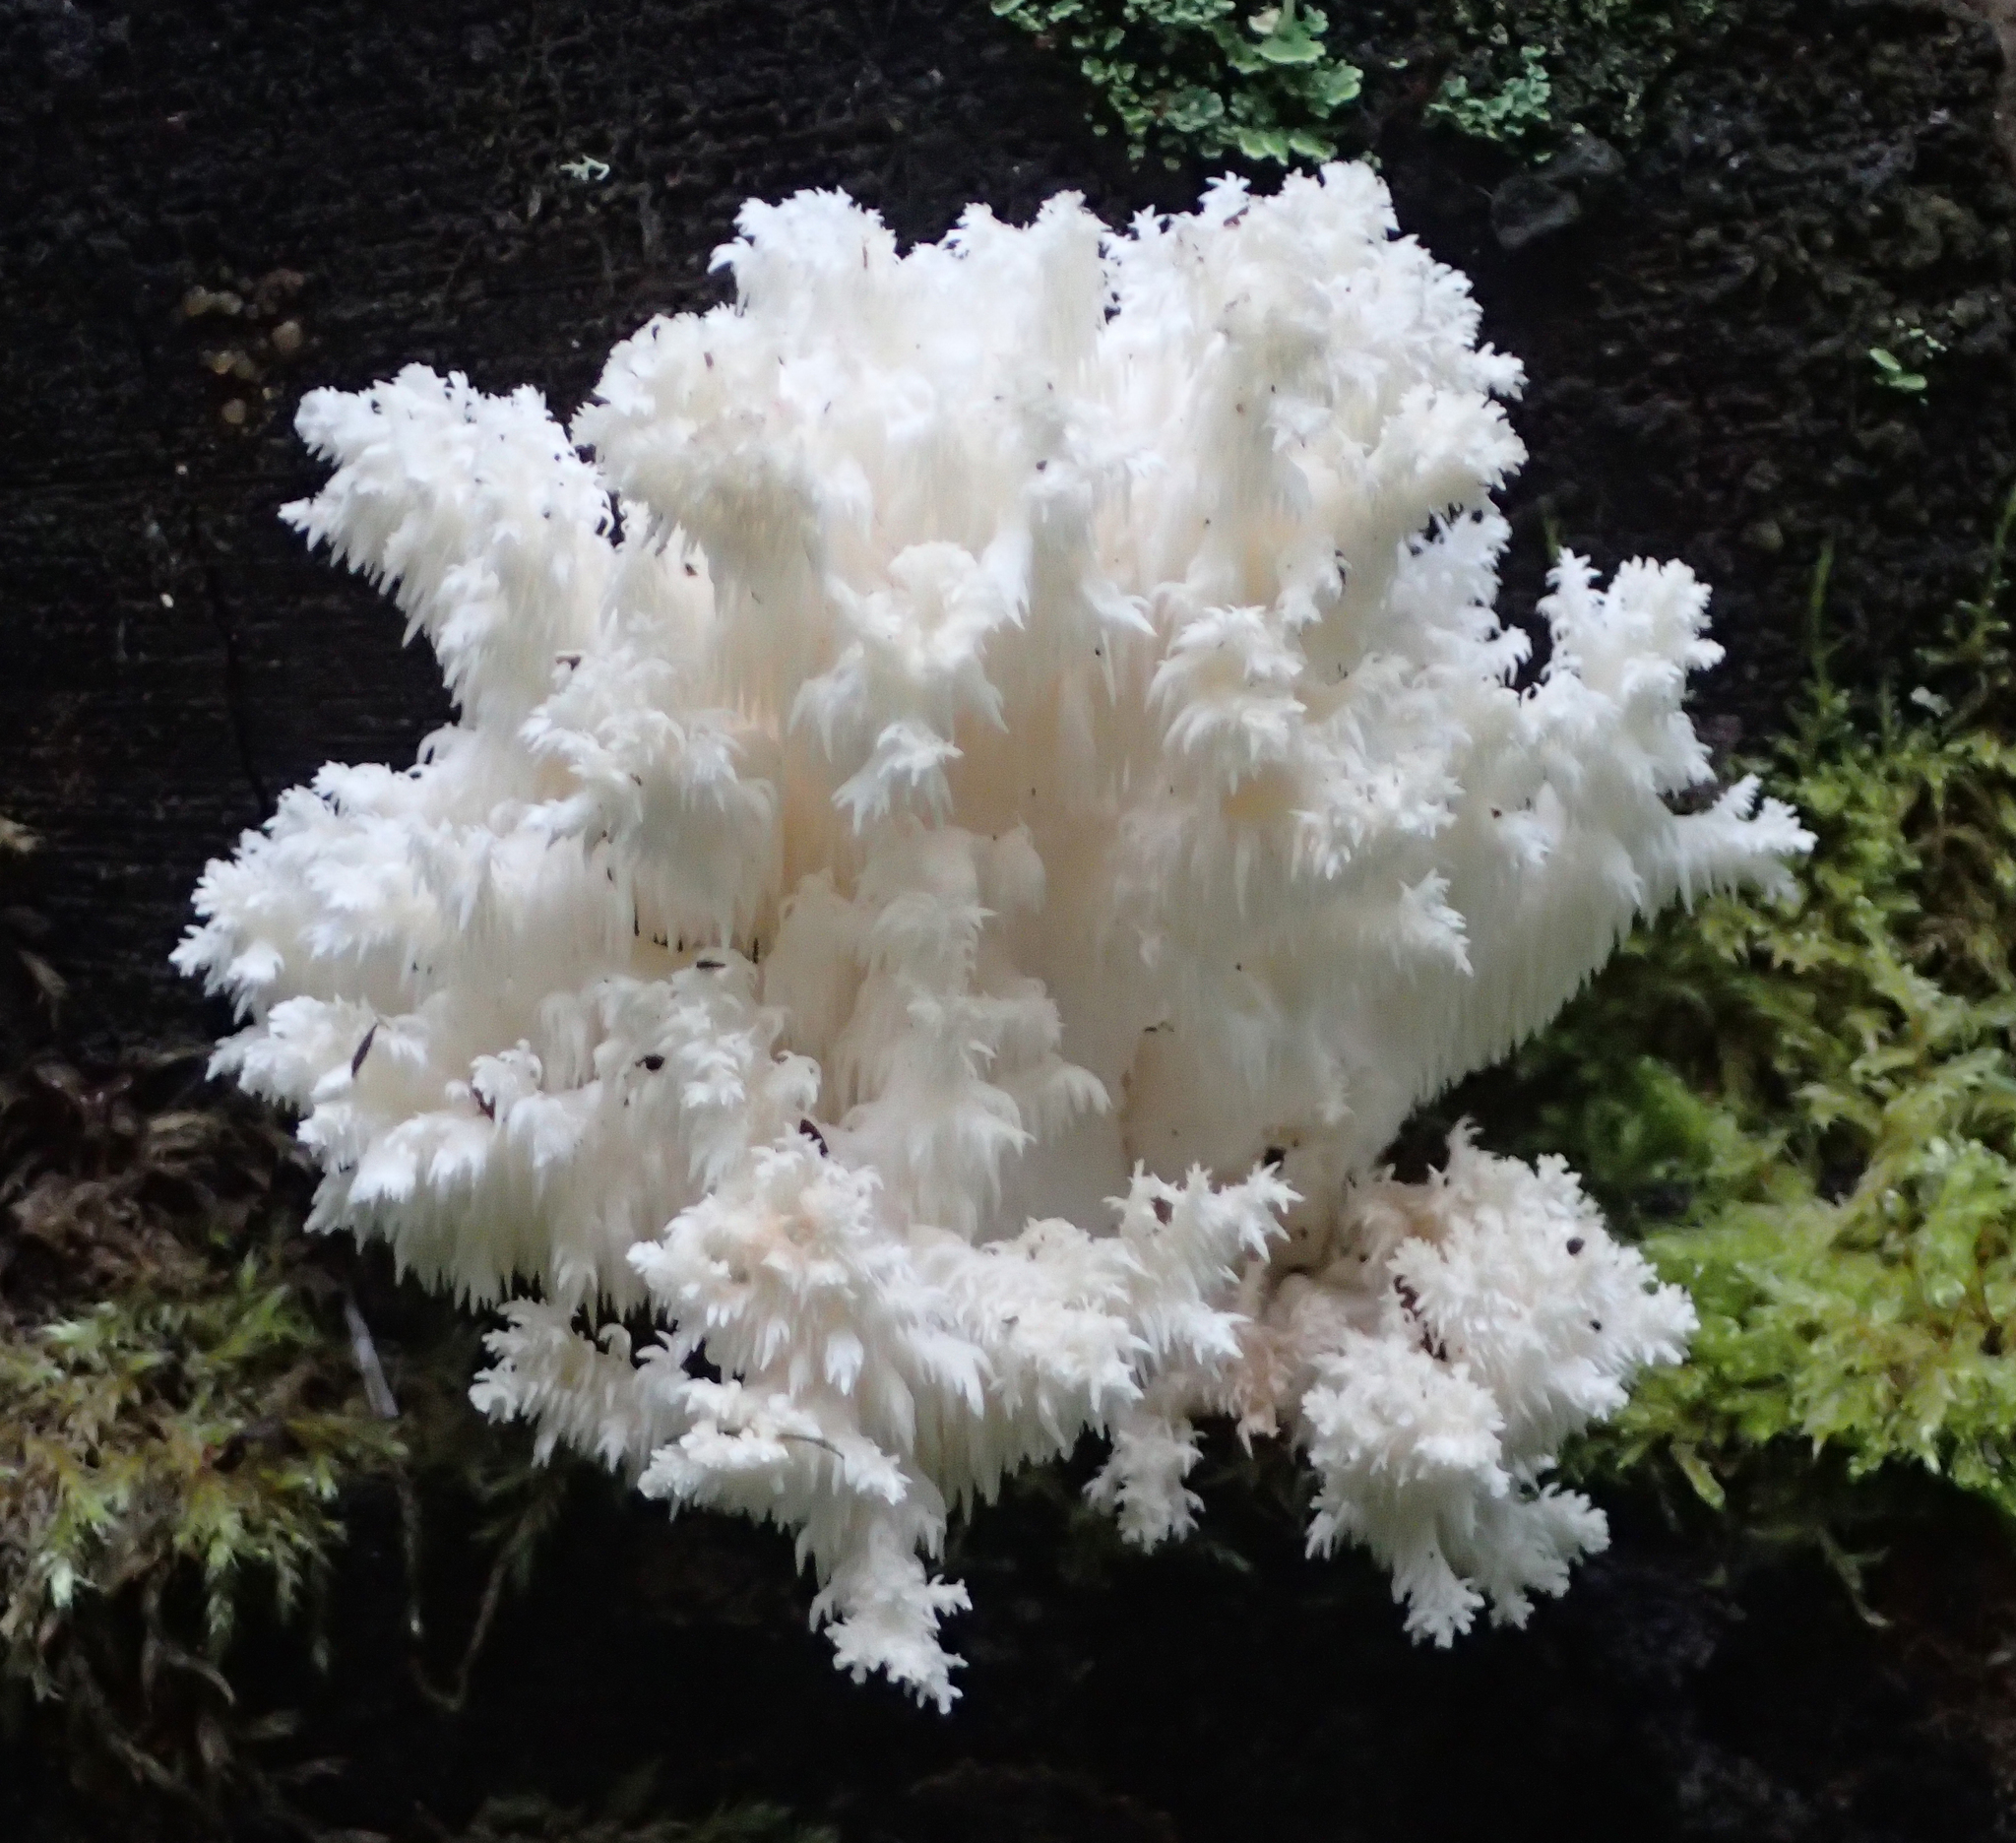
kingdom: Fungi
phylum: Basidiomycota
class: Agaricomycetes
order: Russulales
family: Hericiaceae
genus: Hericium
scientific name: Hericium coralloides
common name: Coral tooth
